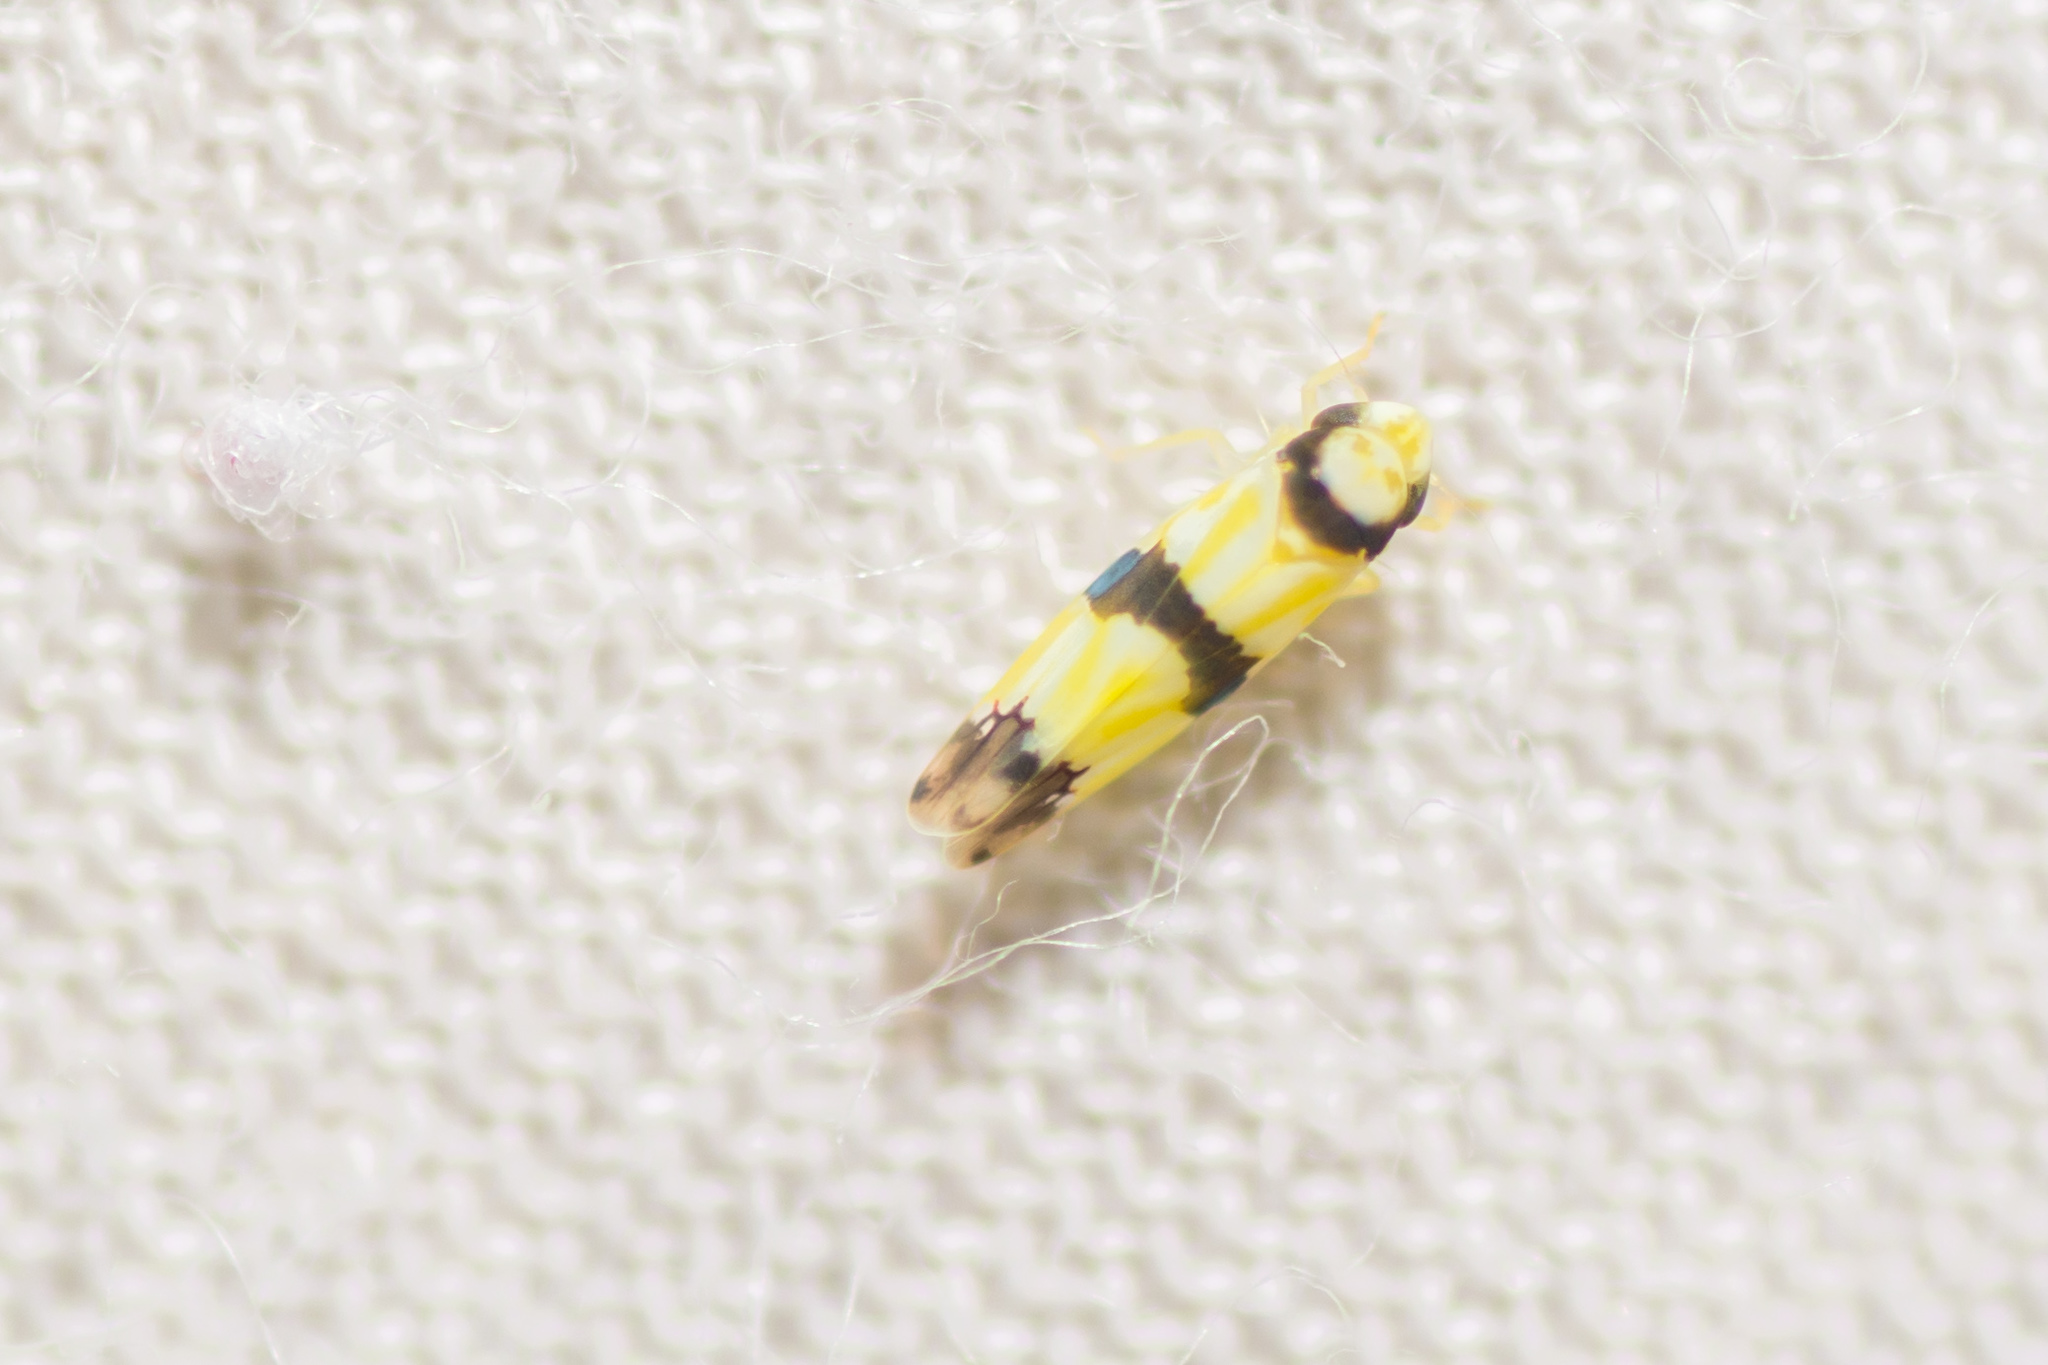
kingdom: Animalia
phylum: Arthropoda
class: Insecta
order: Hemiptera
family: Cicadellidae
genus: Erythroneura
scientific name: Erythroneura calycula
